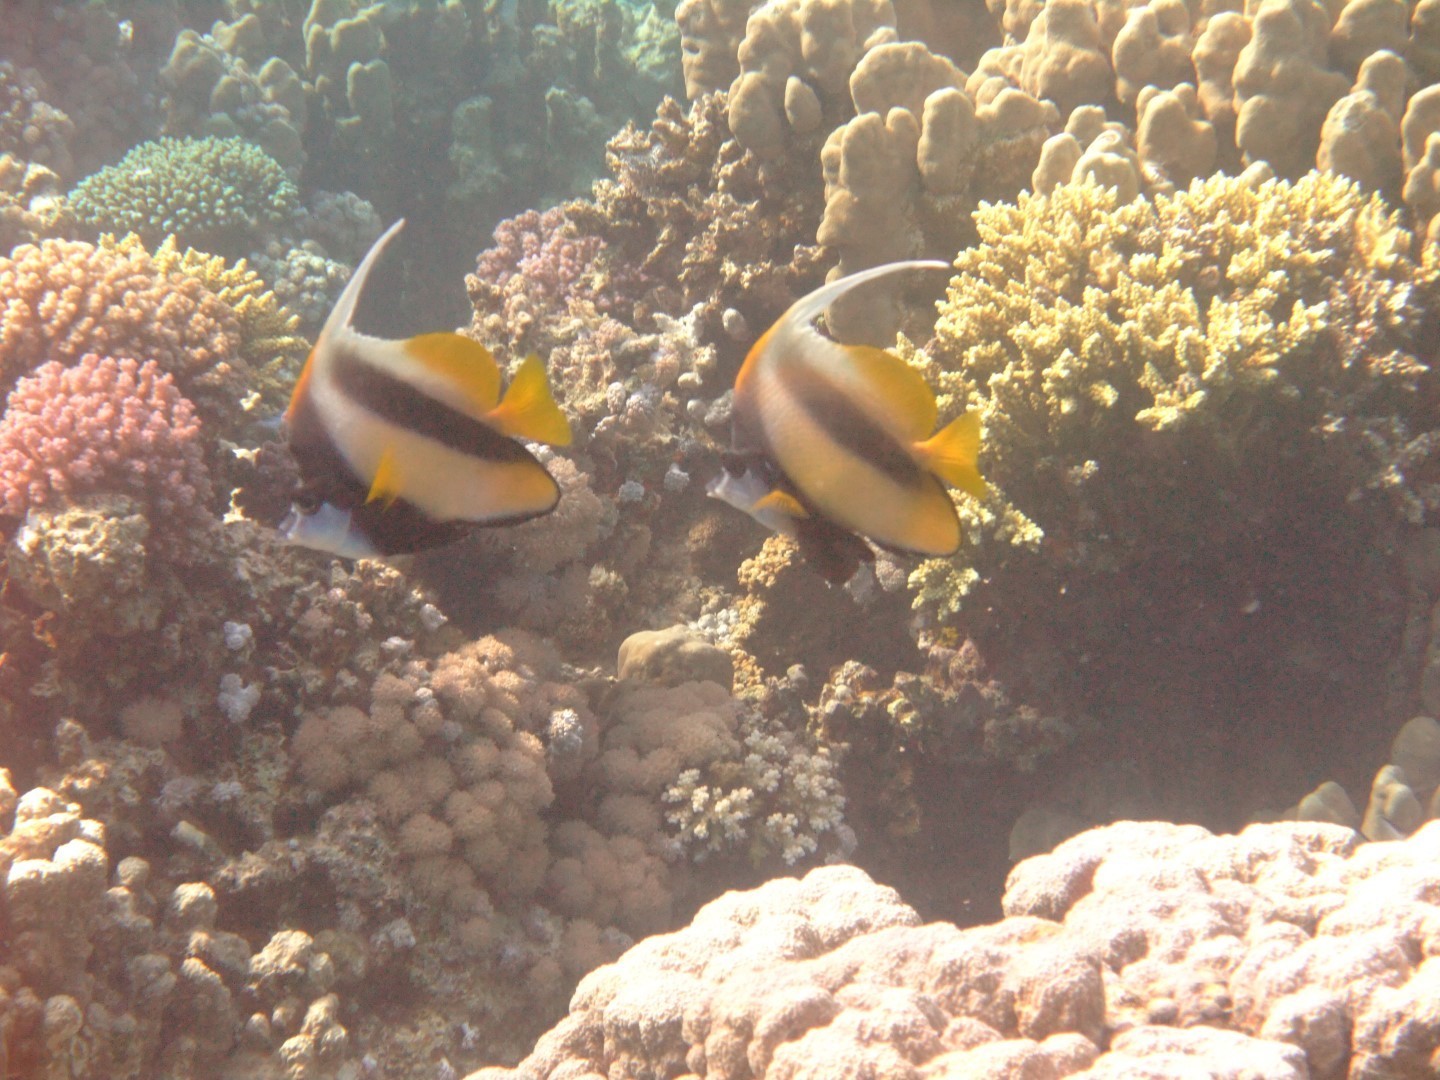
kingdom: Animalia
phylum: Chordata
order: Perciformes
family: Chaetodontidae
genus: Heniochus
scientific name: Heniochus intermedius
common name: Red sea bannerfish
